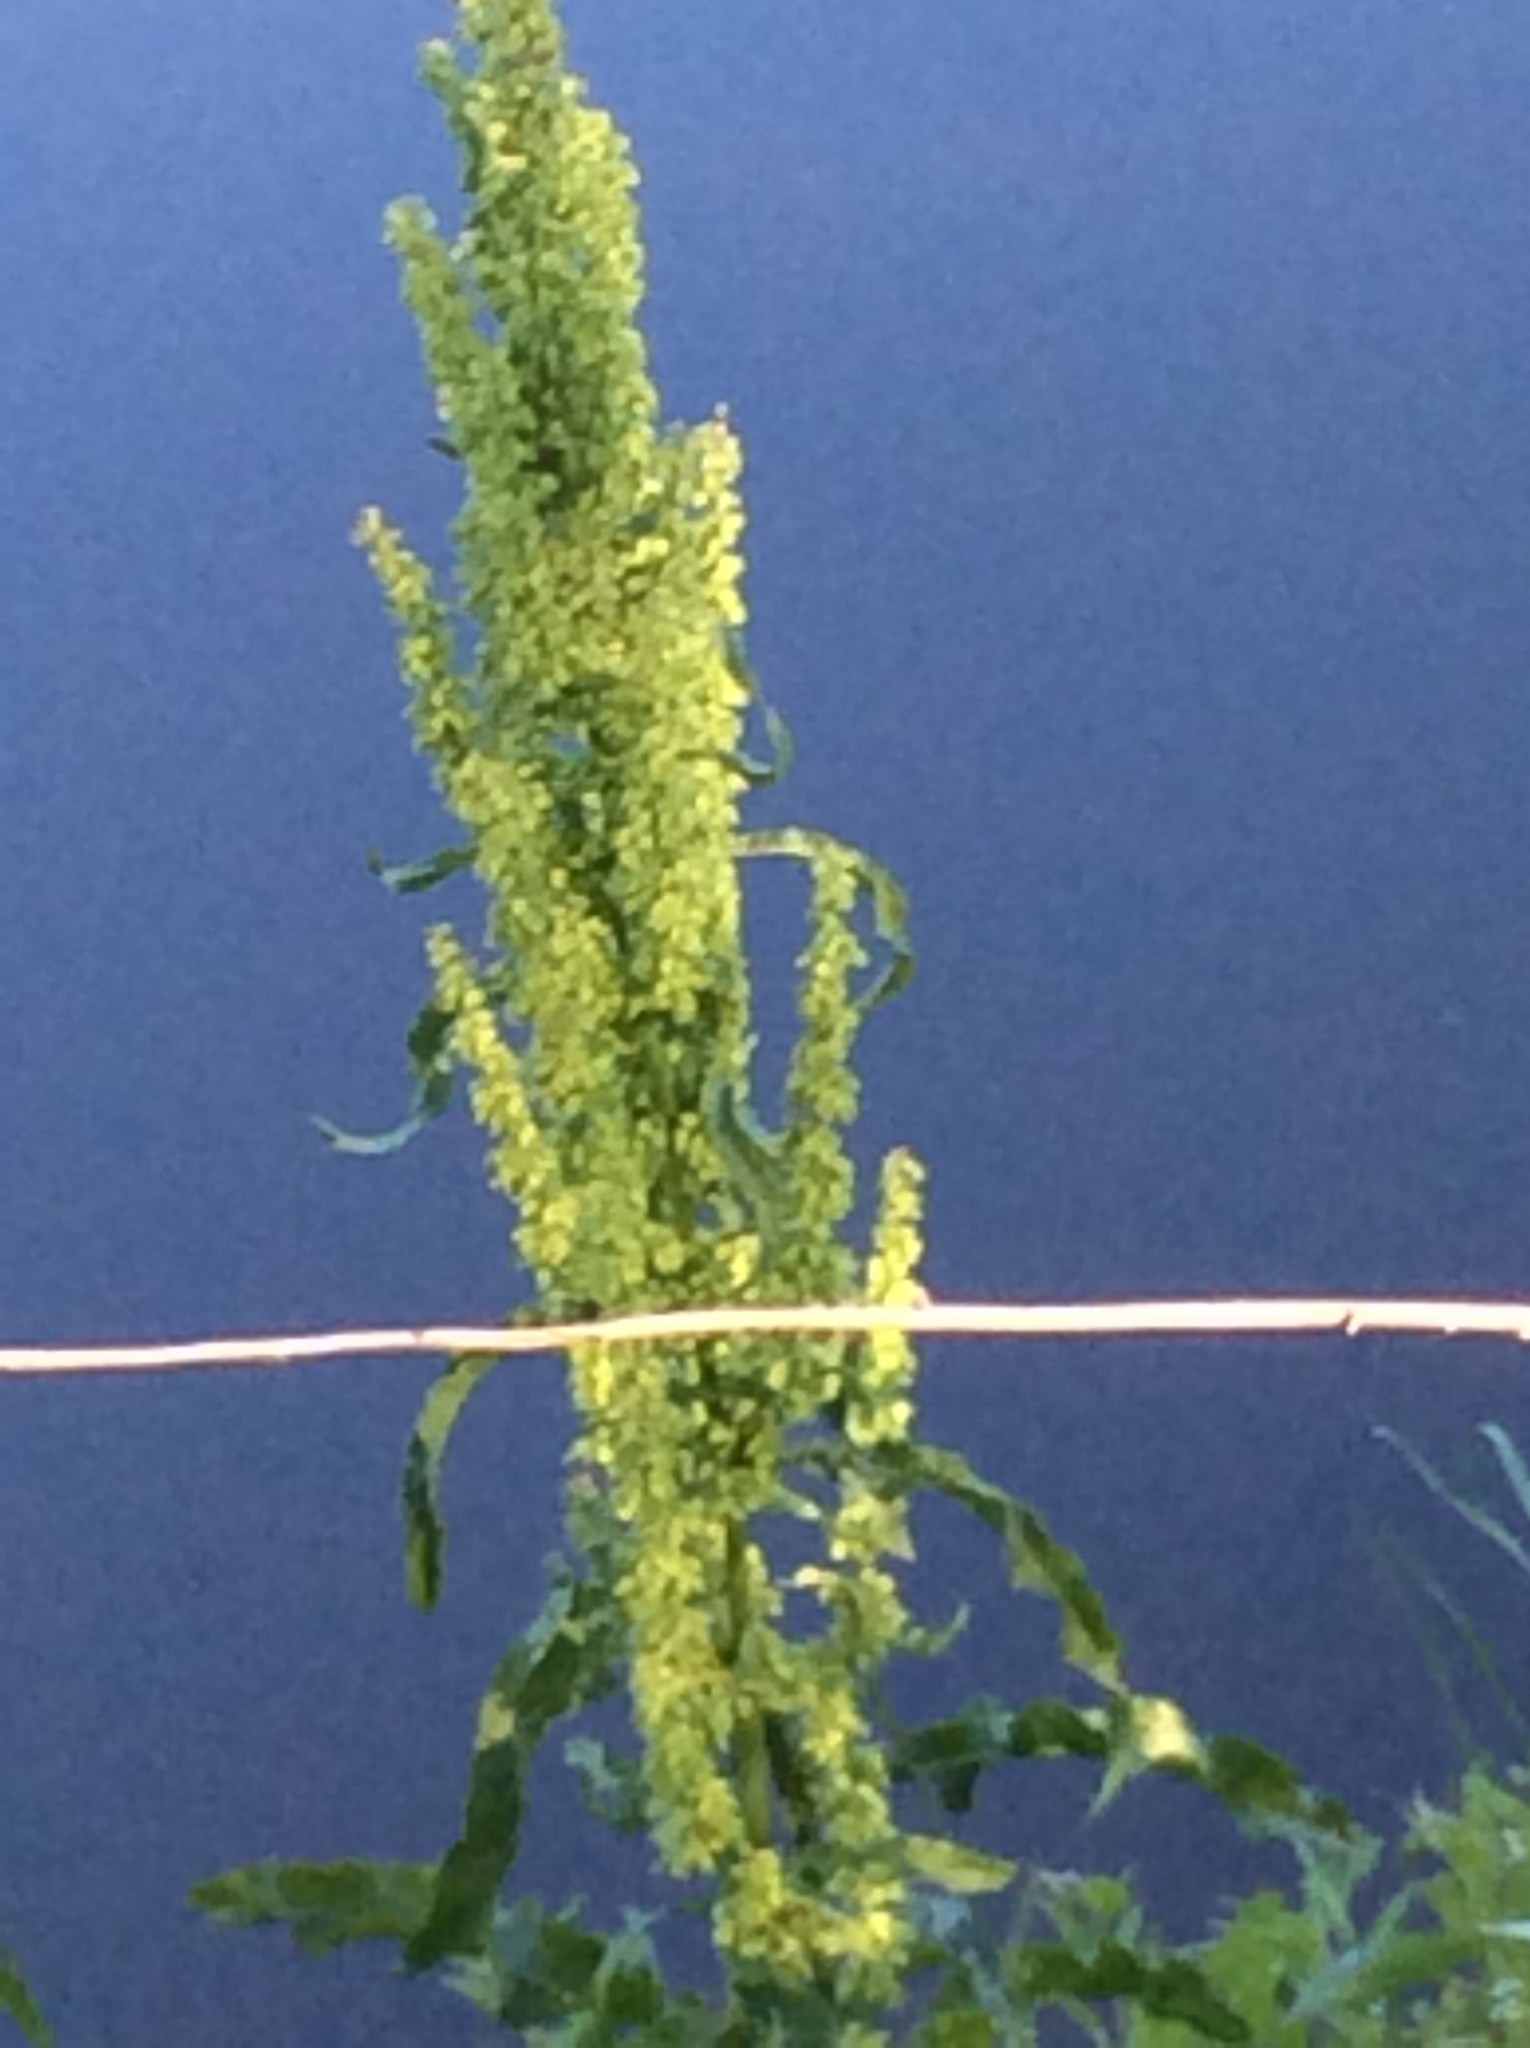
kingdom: Plantae
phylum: Tracheophyta
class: Magnoliopsida
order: Caryophyllales
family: Polygonaceae
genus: Rumex
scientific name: Rumex crispus
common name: Curled dock
